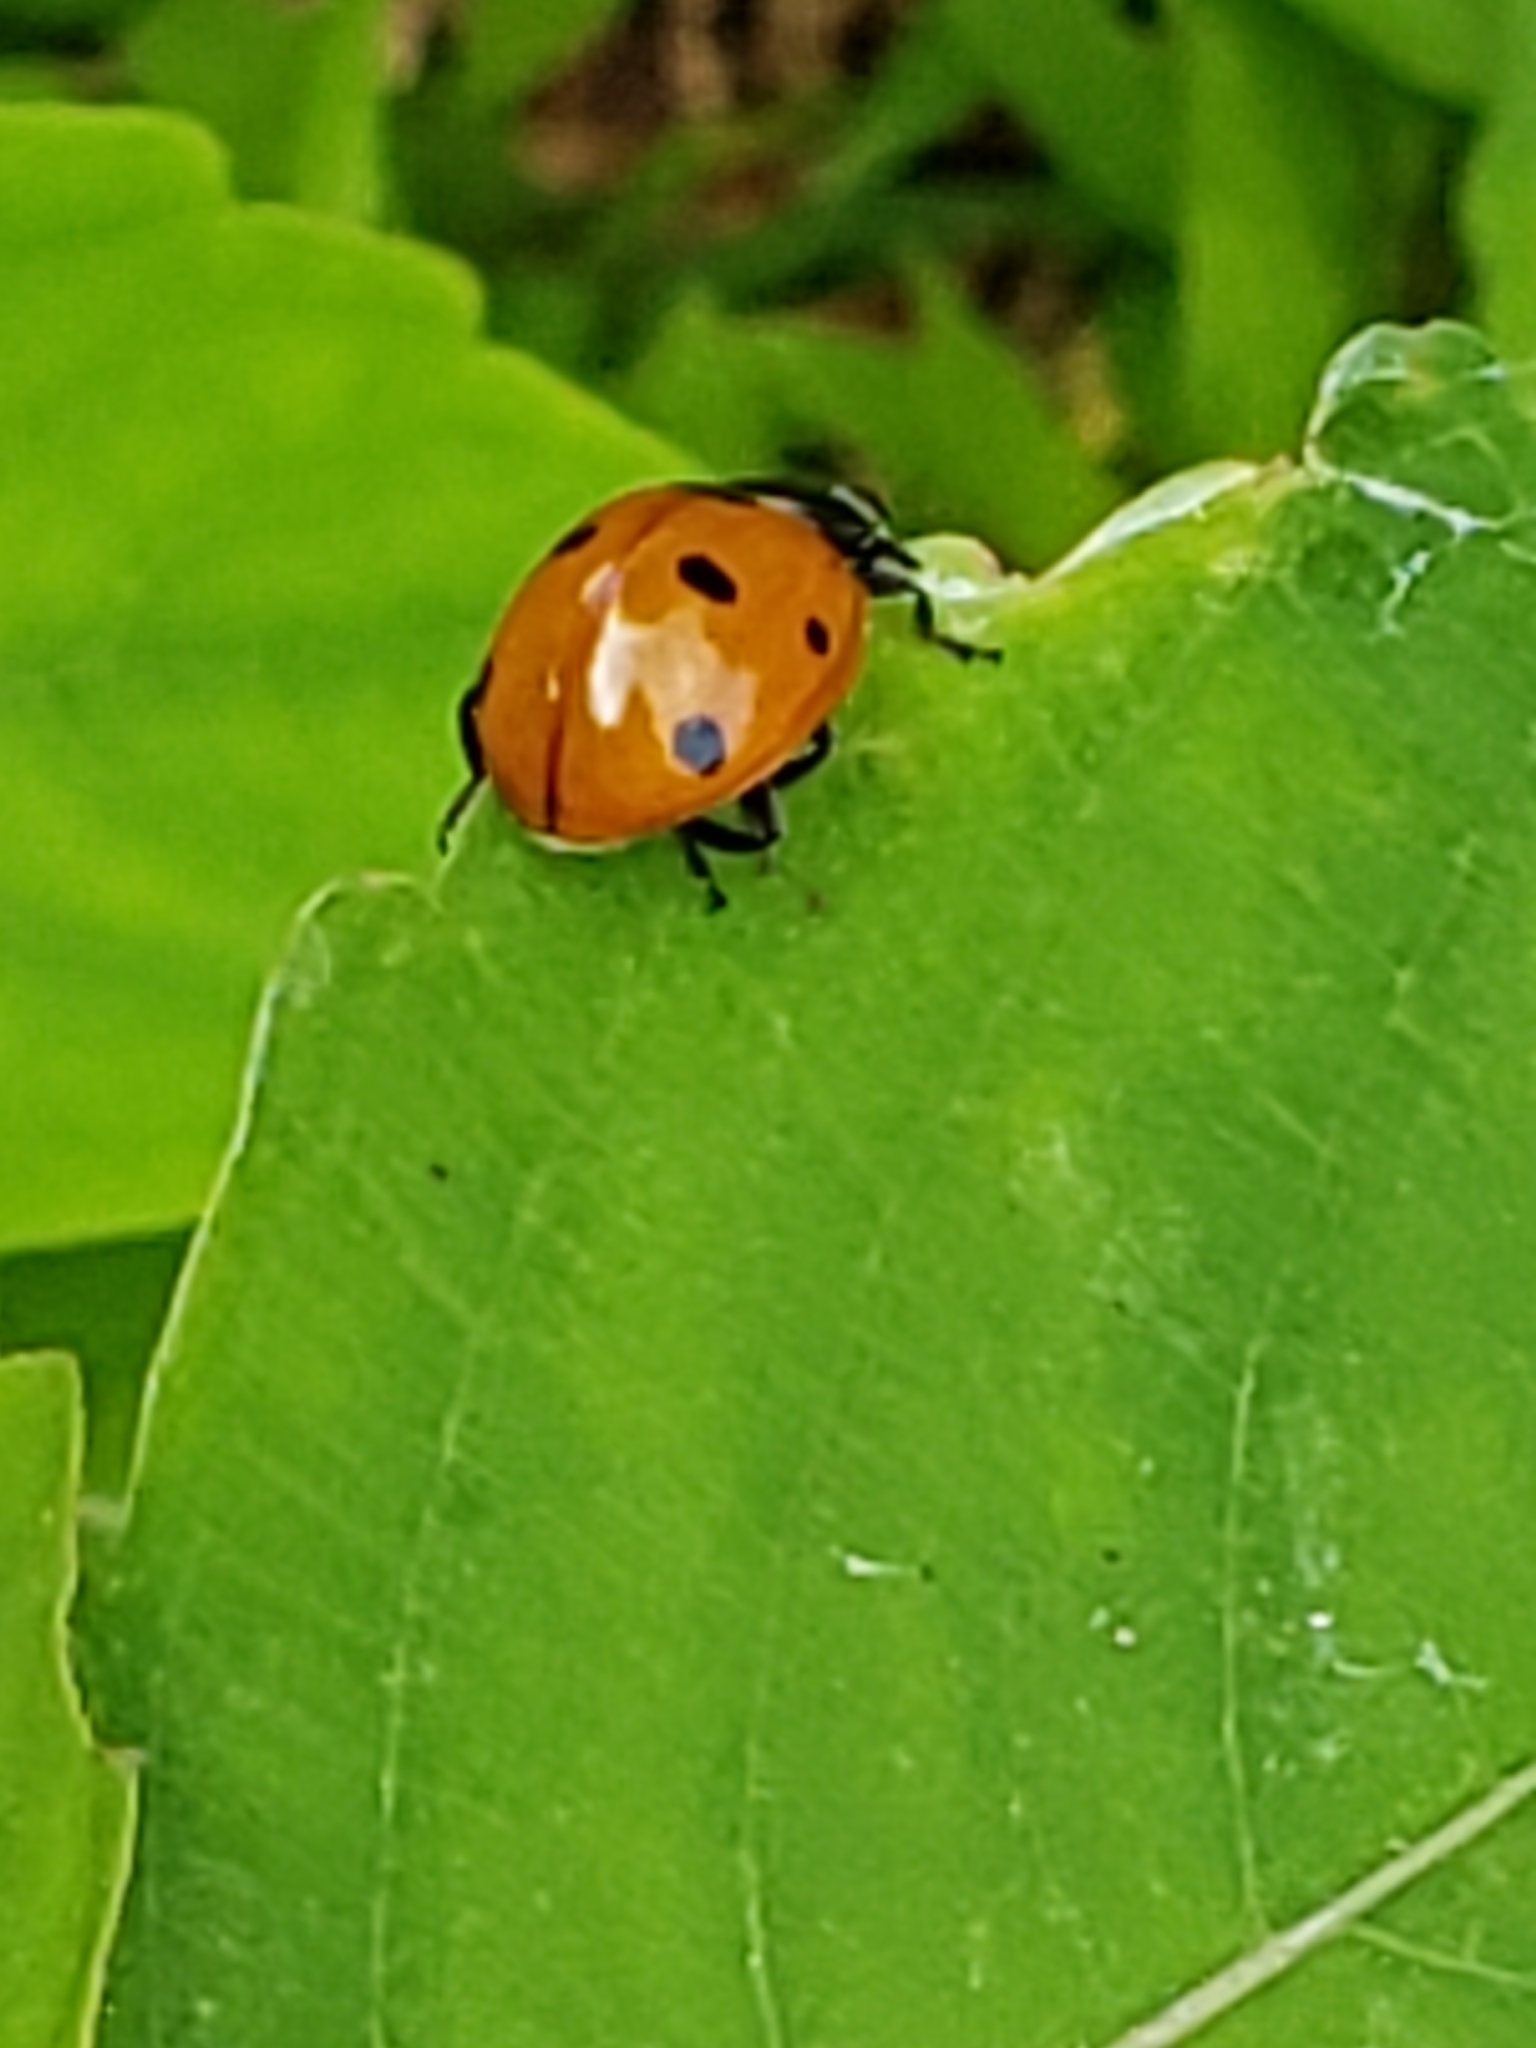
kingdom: Animalia
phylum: Arthropoda
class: Insecta
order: Coleoptera
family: Coccinellidae
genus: Coccinella
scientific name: Coccinella septempunctata
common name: Sevenspotted lady beetle
